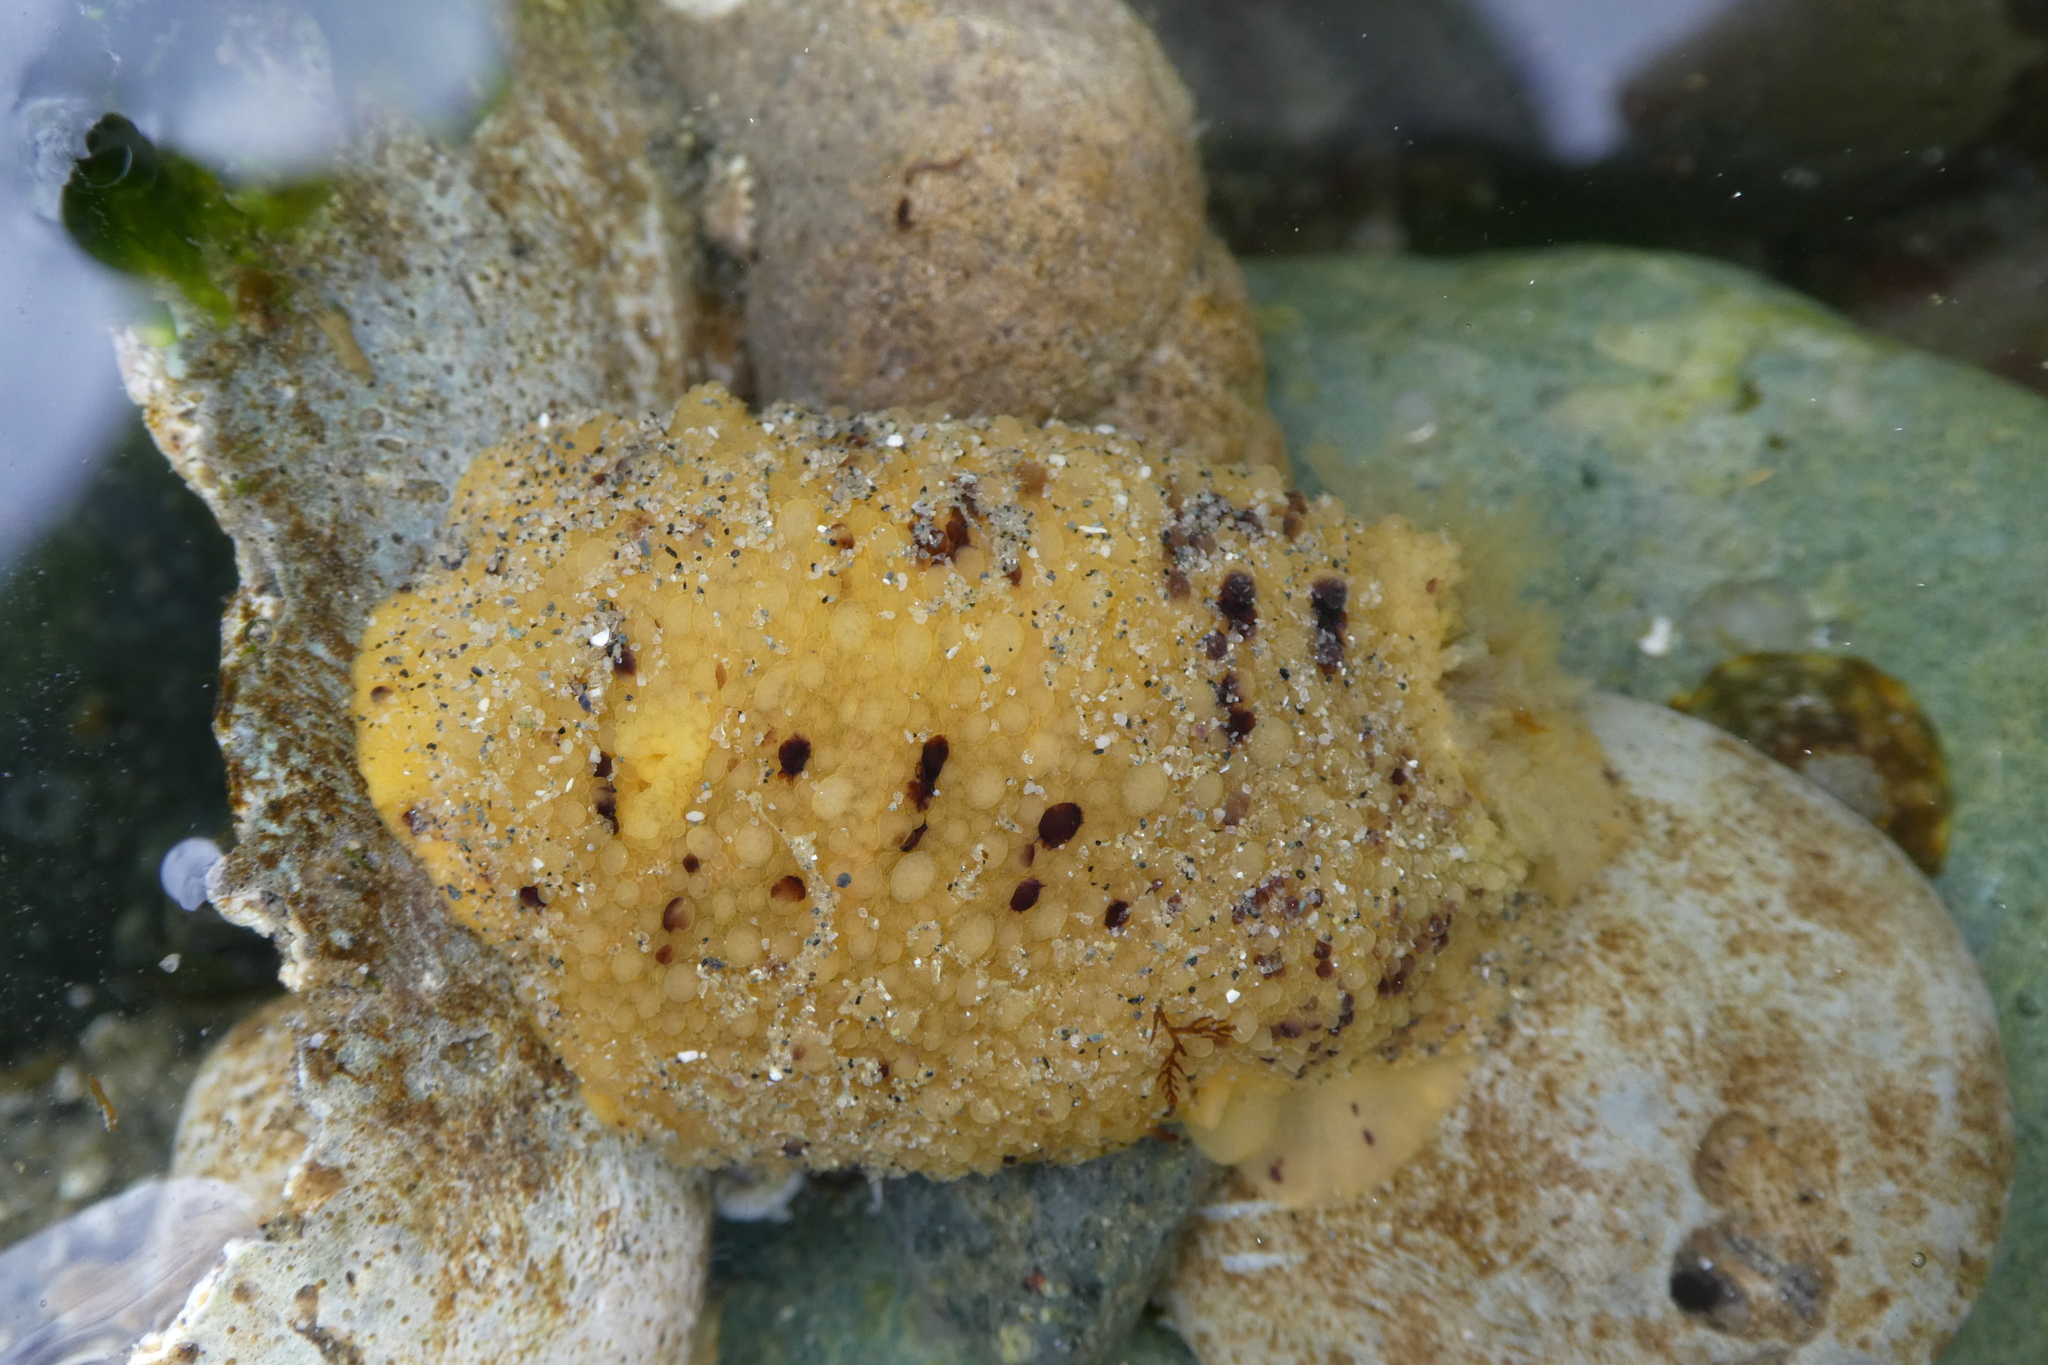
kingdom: Animalia
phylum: Mollusca
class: Gastropoda
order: Nudibranchia
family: Dorididae
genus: Doris
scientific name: Doris montereyensis
